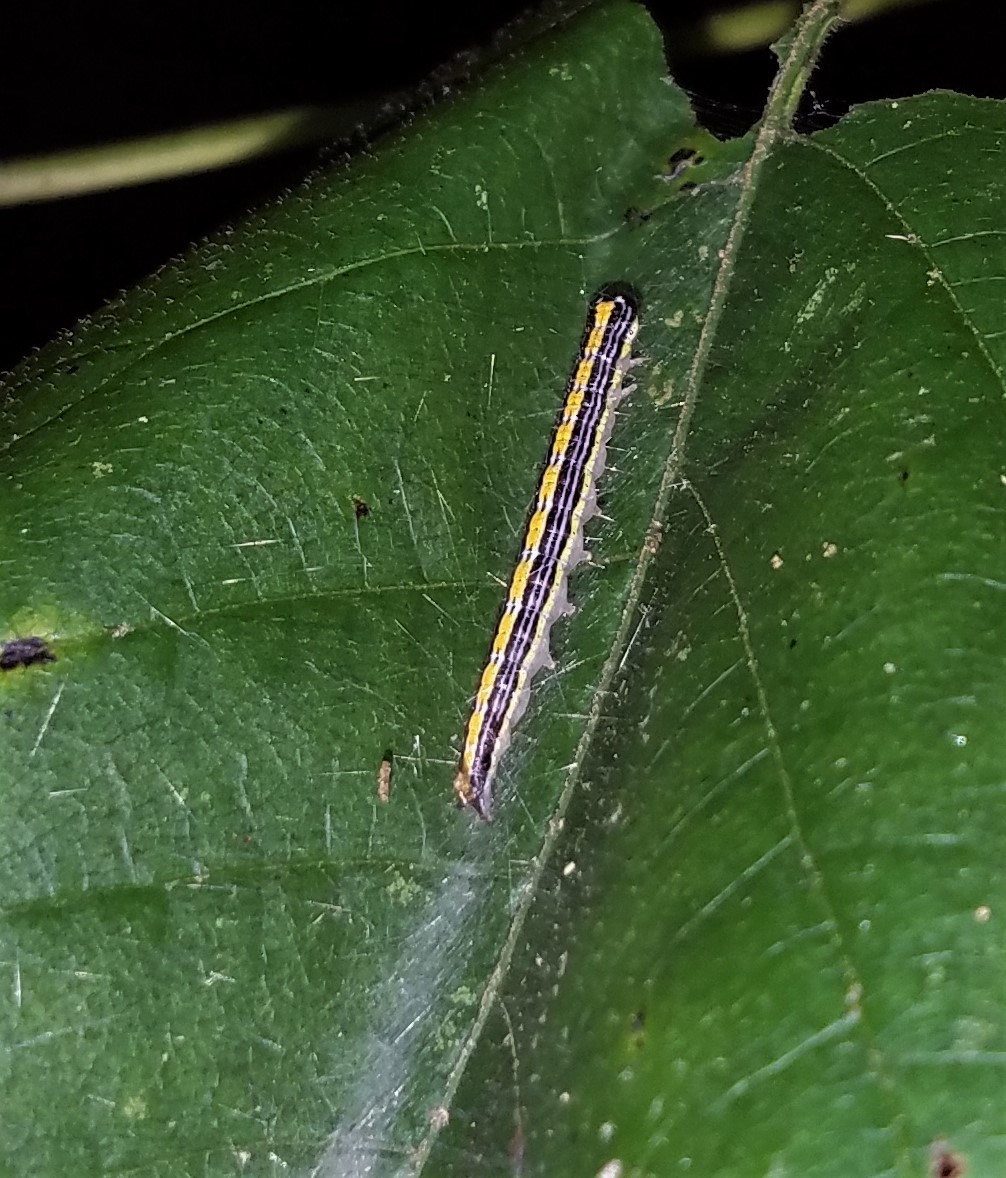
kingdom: Animalia
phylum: Arthropoda
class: Insecta
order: Lepidoptera
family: Pyralidae
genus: Epipaschia
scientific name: Epipaschia superatalis
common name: Dimorphic macalla moth
